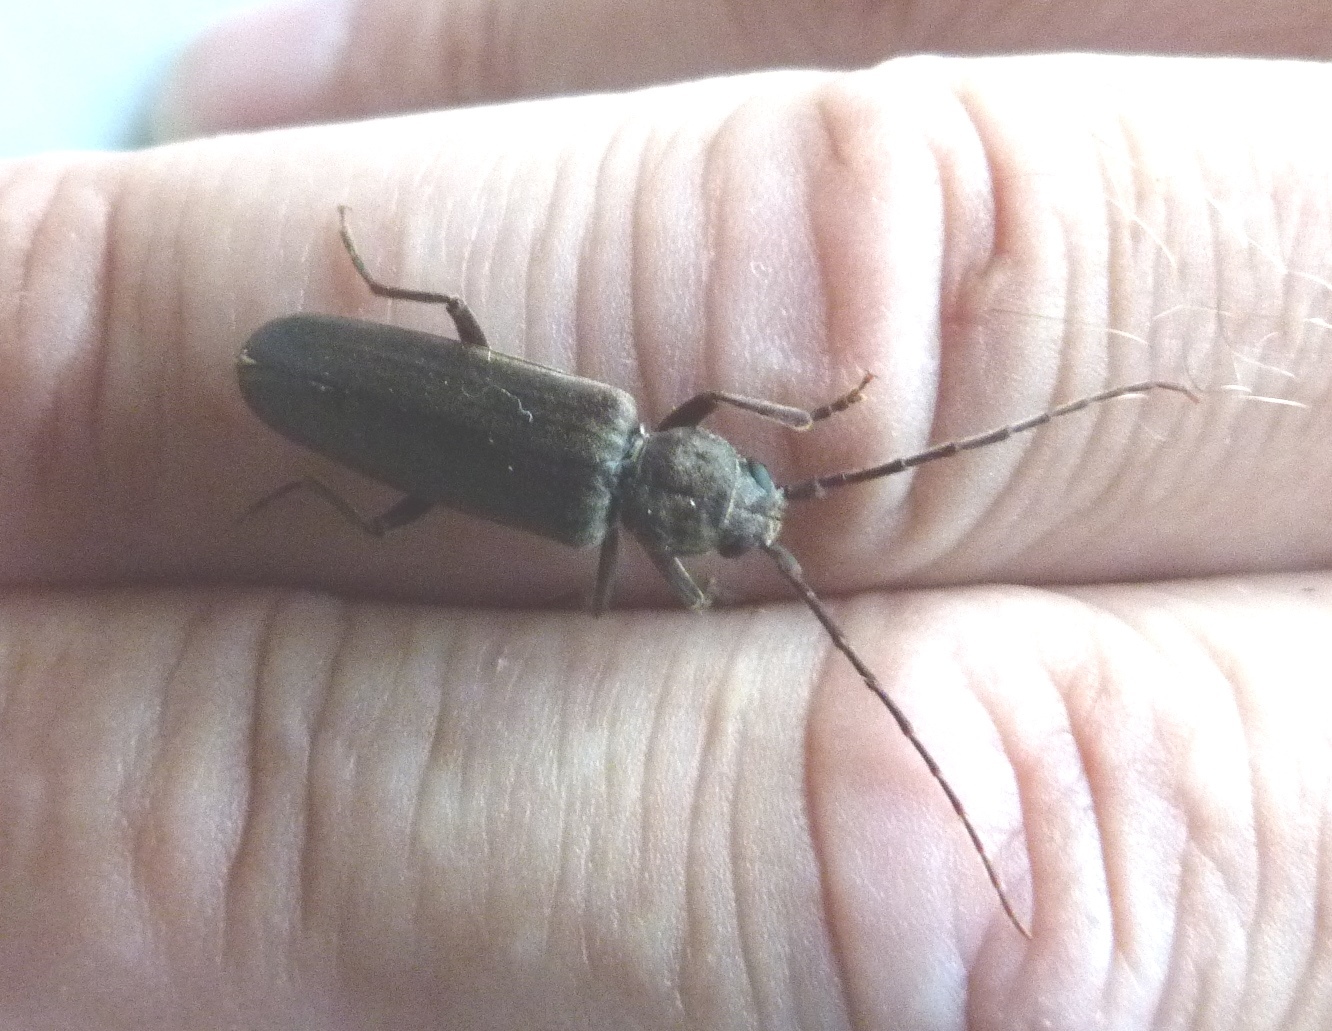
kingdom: Animalia
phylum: Arthropoda
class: Insecta
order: Coleoptera
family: Cerambycidae
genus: Arhopalus
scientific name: Arhopalus ferus
